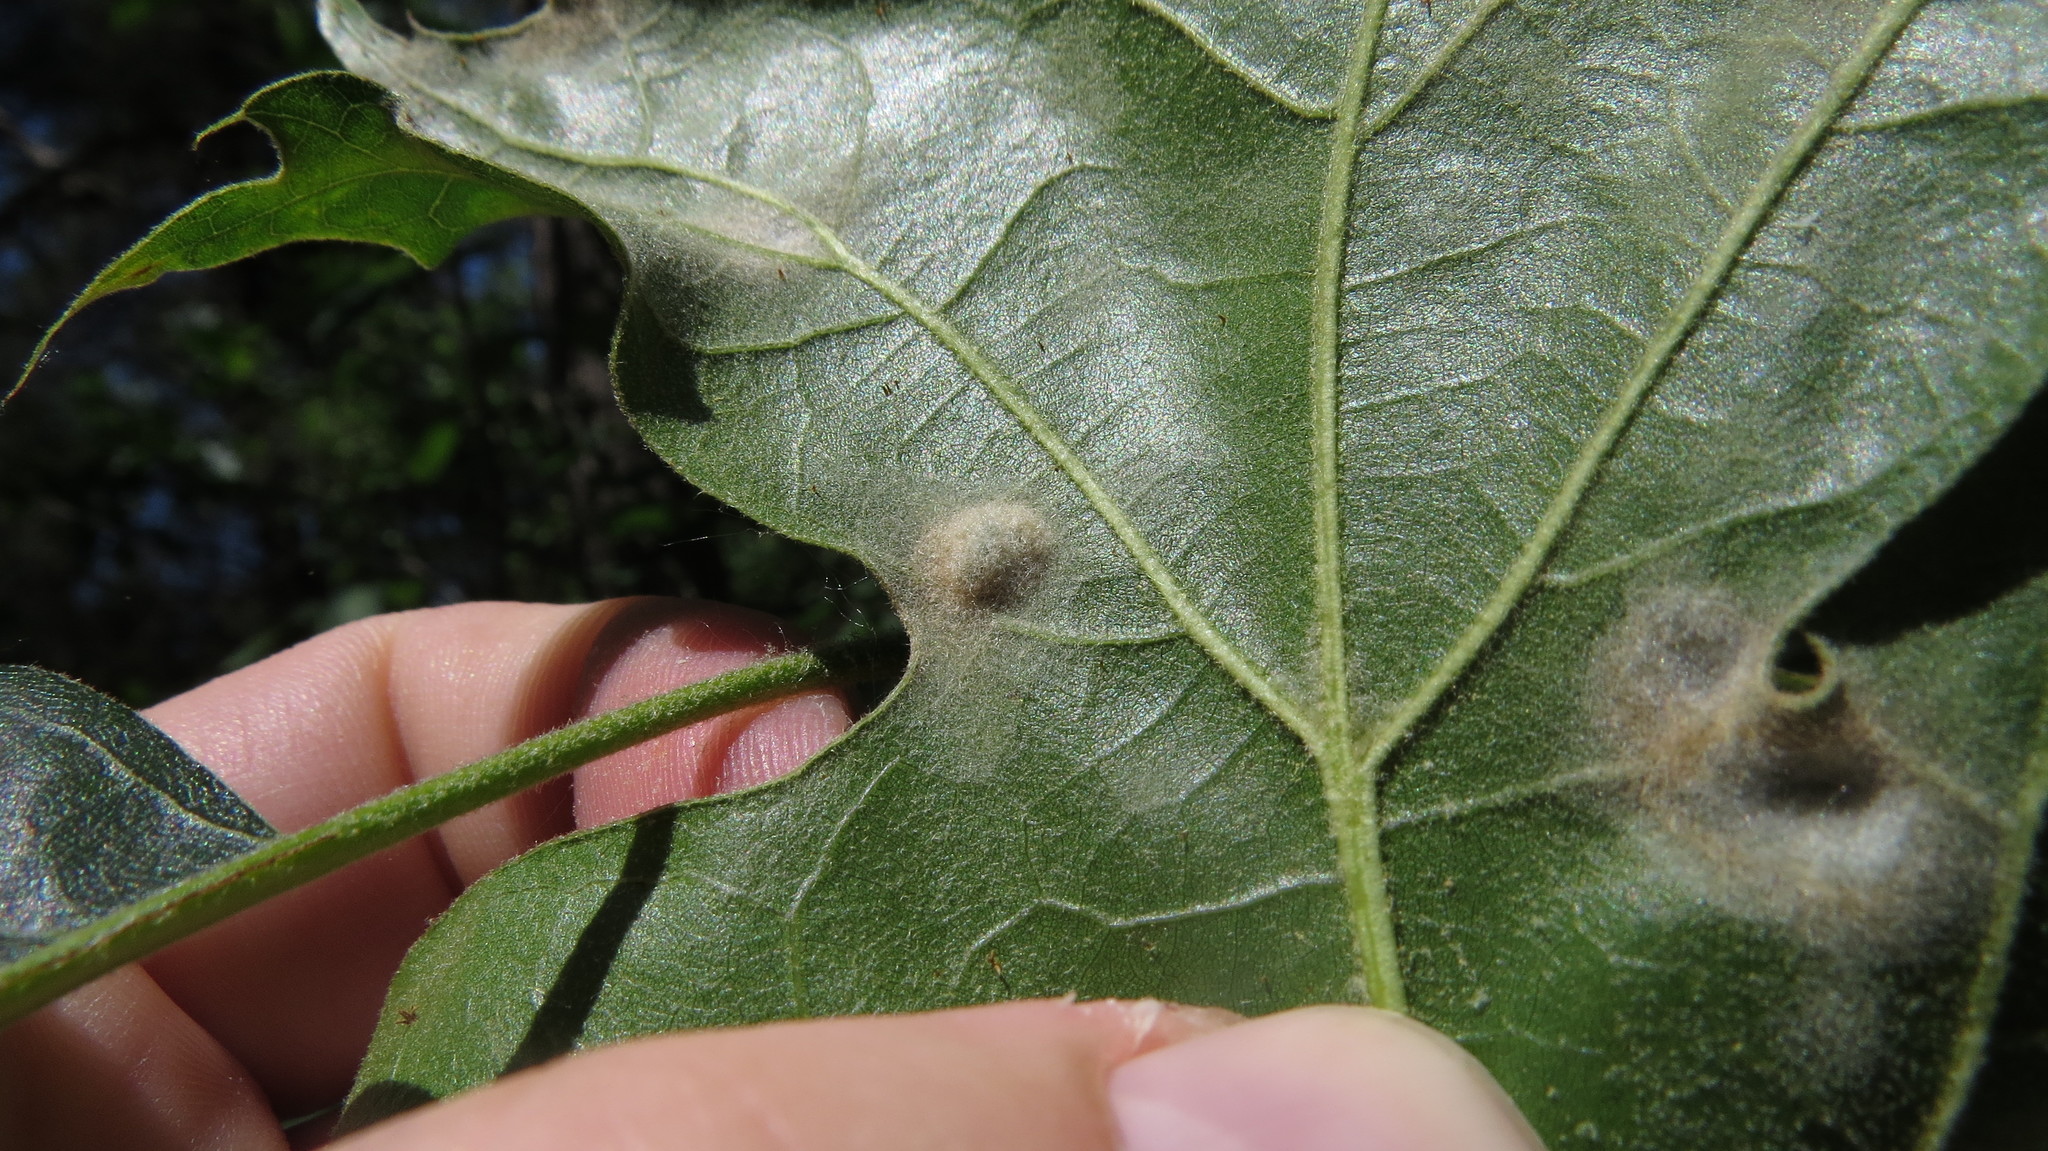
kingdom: Animalia
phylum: Arthropoda
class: Arachnida
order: Trombidiformes
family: Eriophyidae
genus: Aceria
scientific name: Aceria
